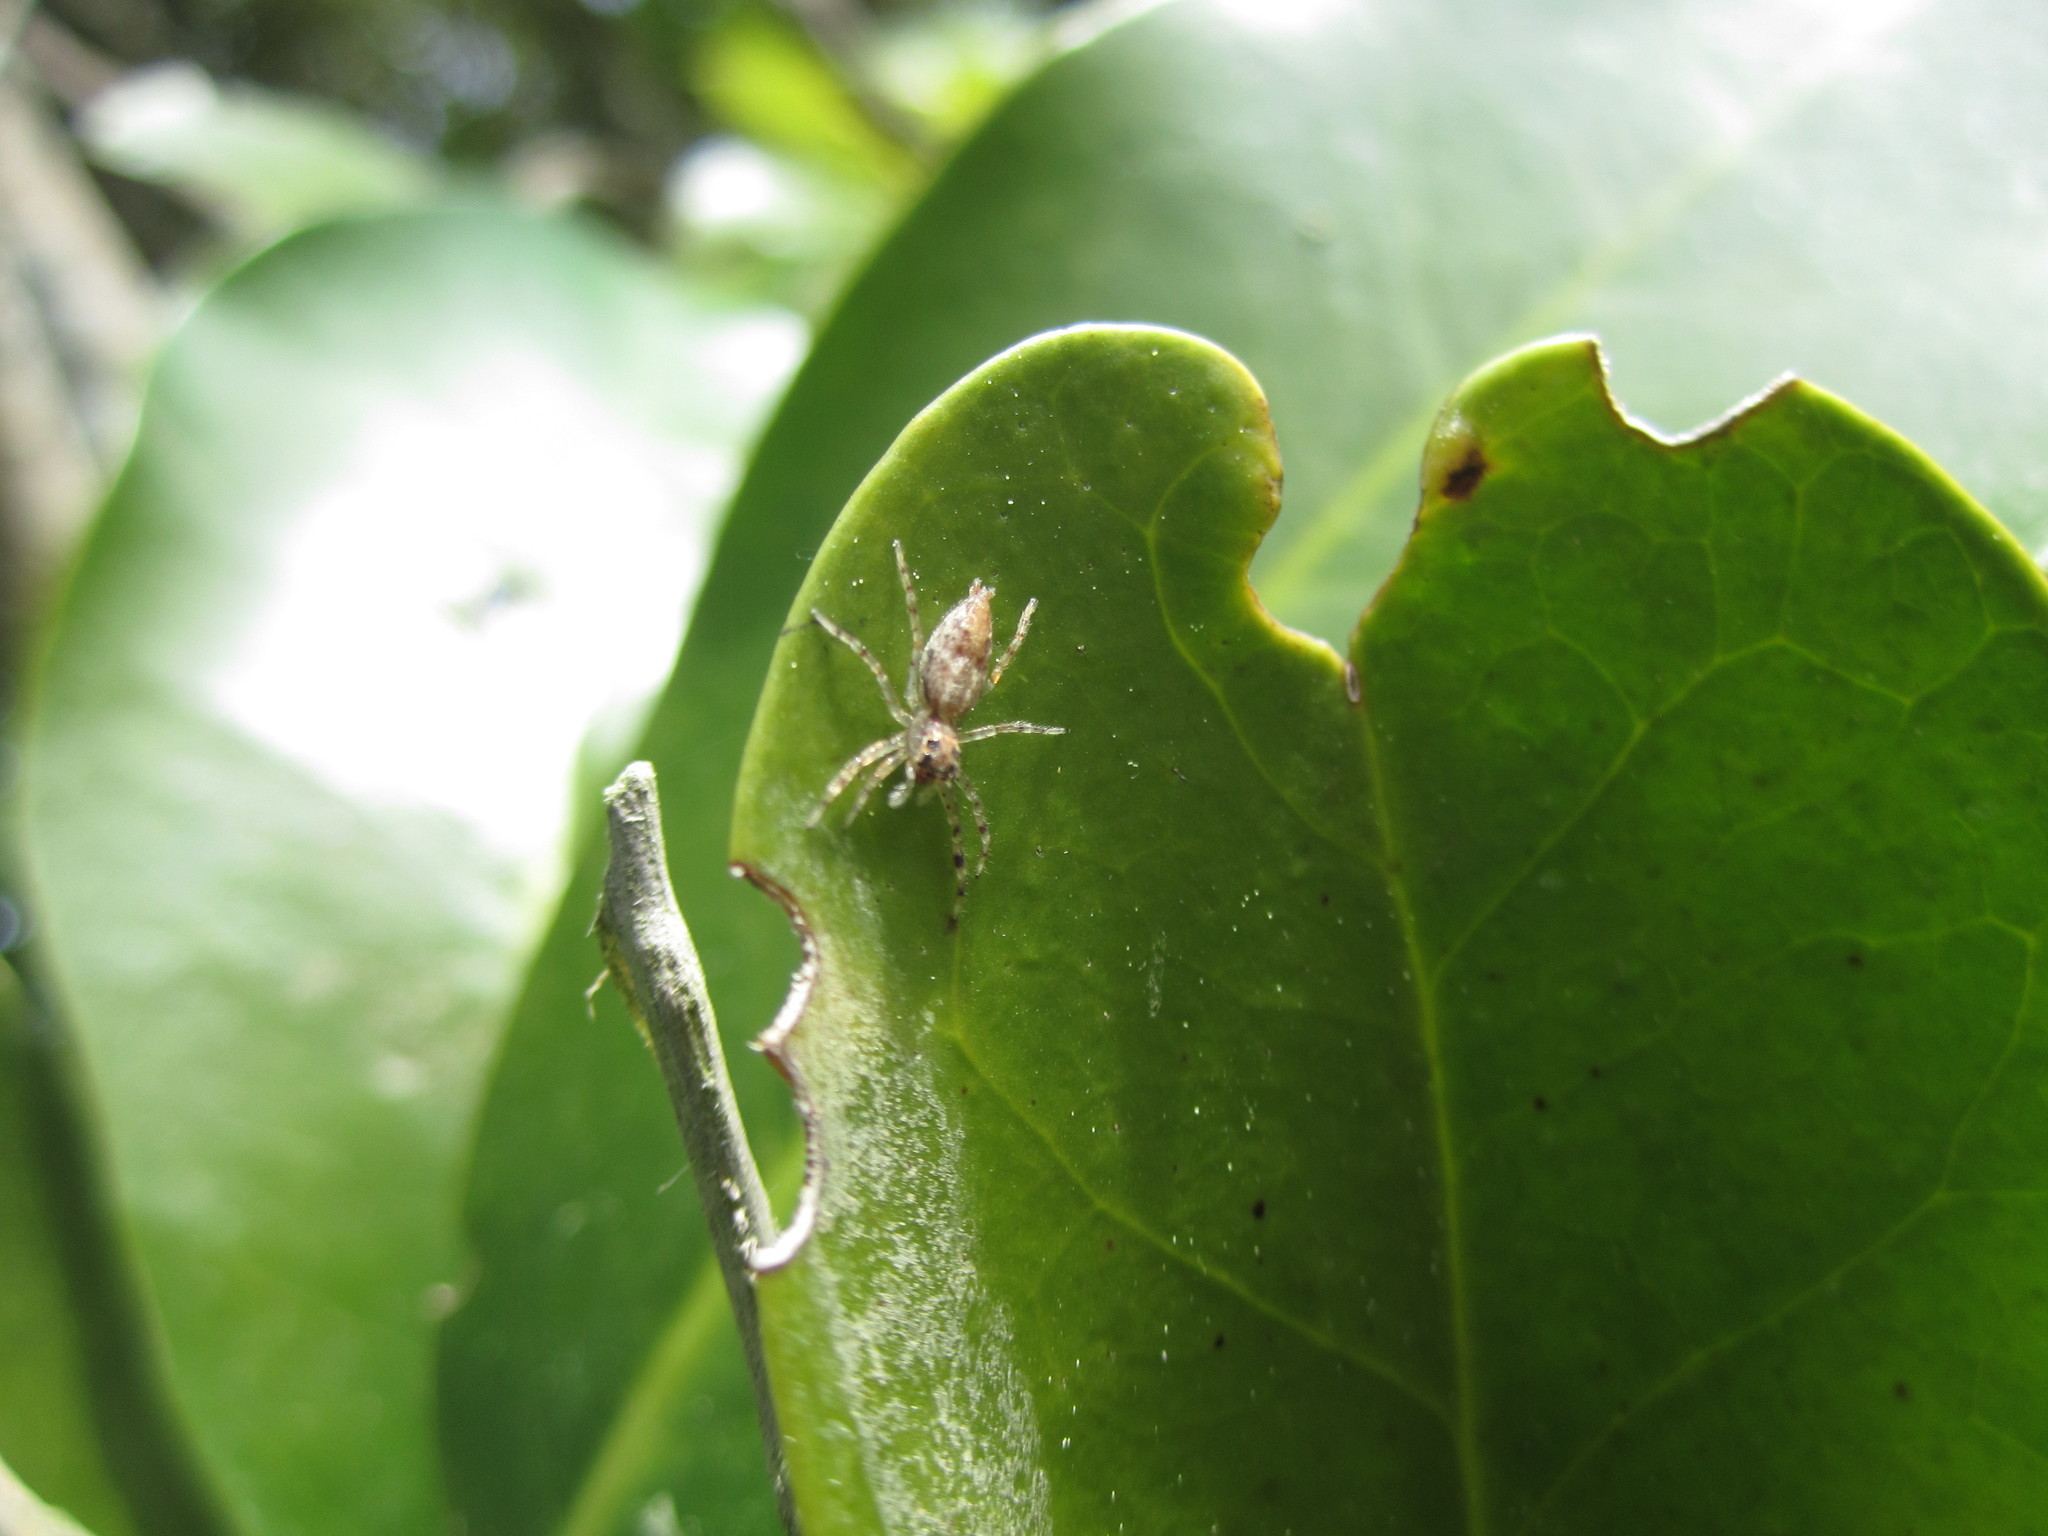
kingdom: Animalia
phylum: Arthropoda
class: Arachnida
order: Araneae
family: Salticidae
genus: Helpis
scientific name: Helpis minitabunda
